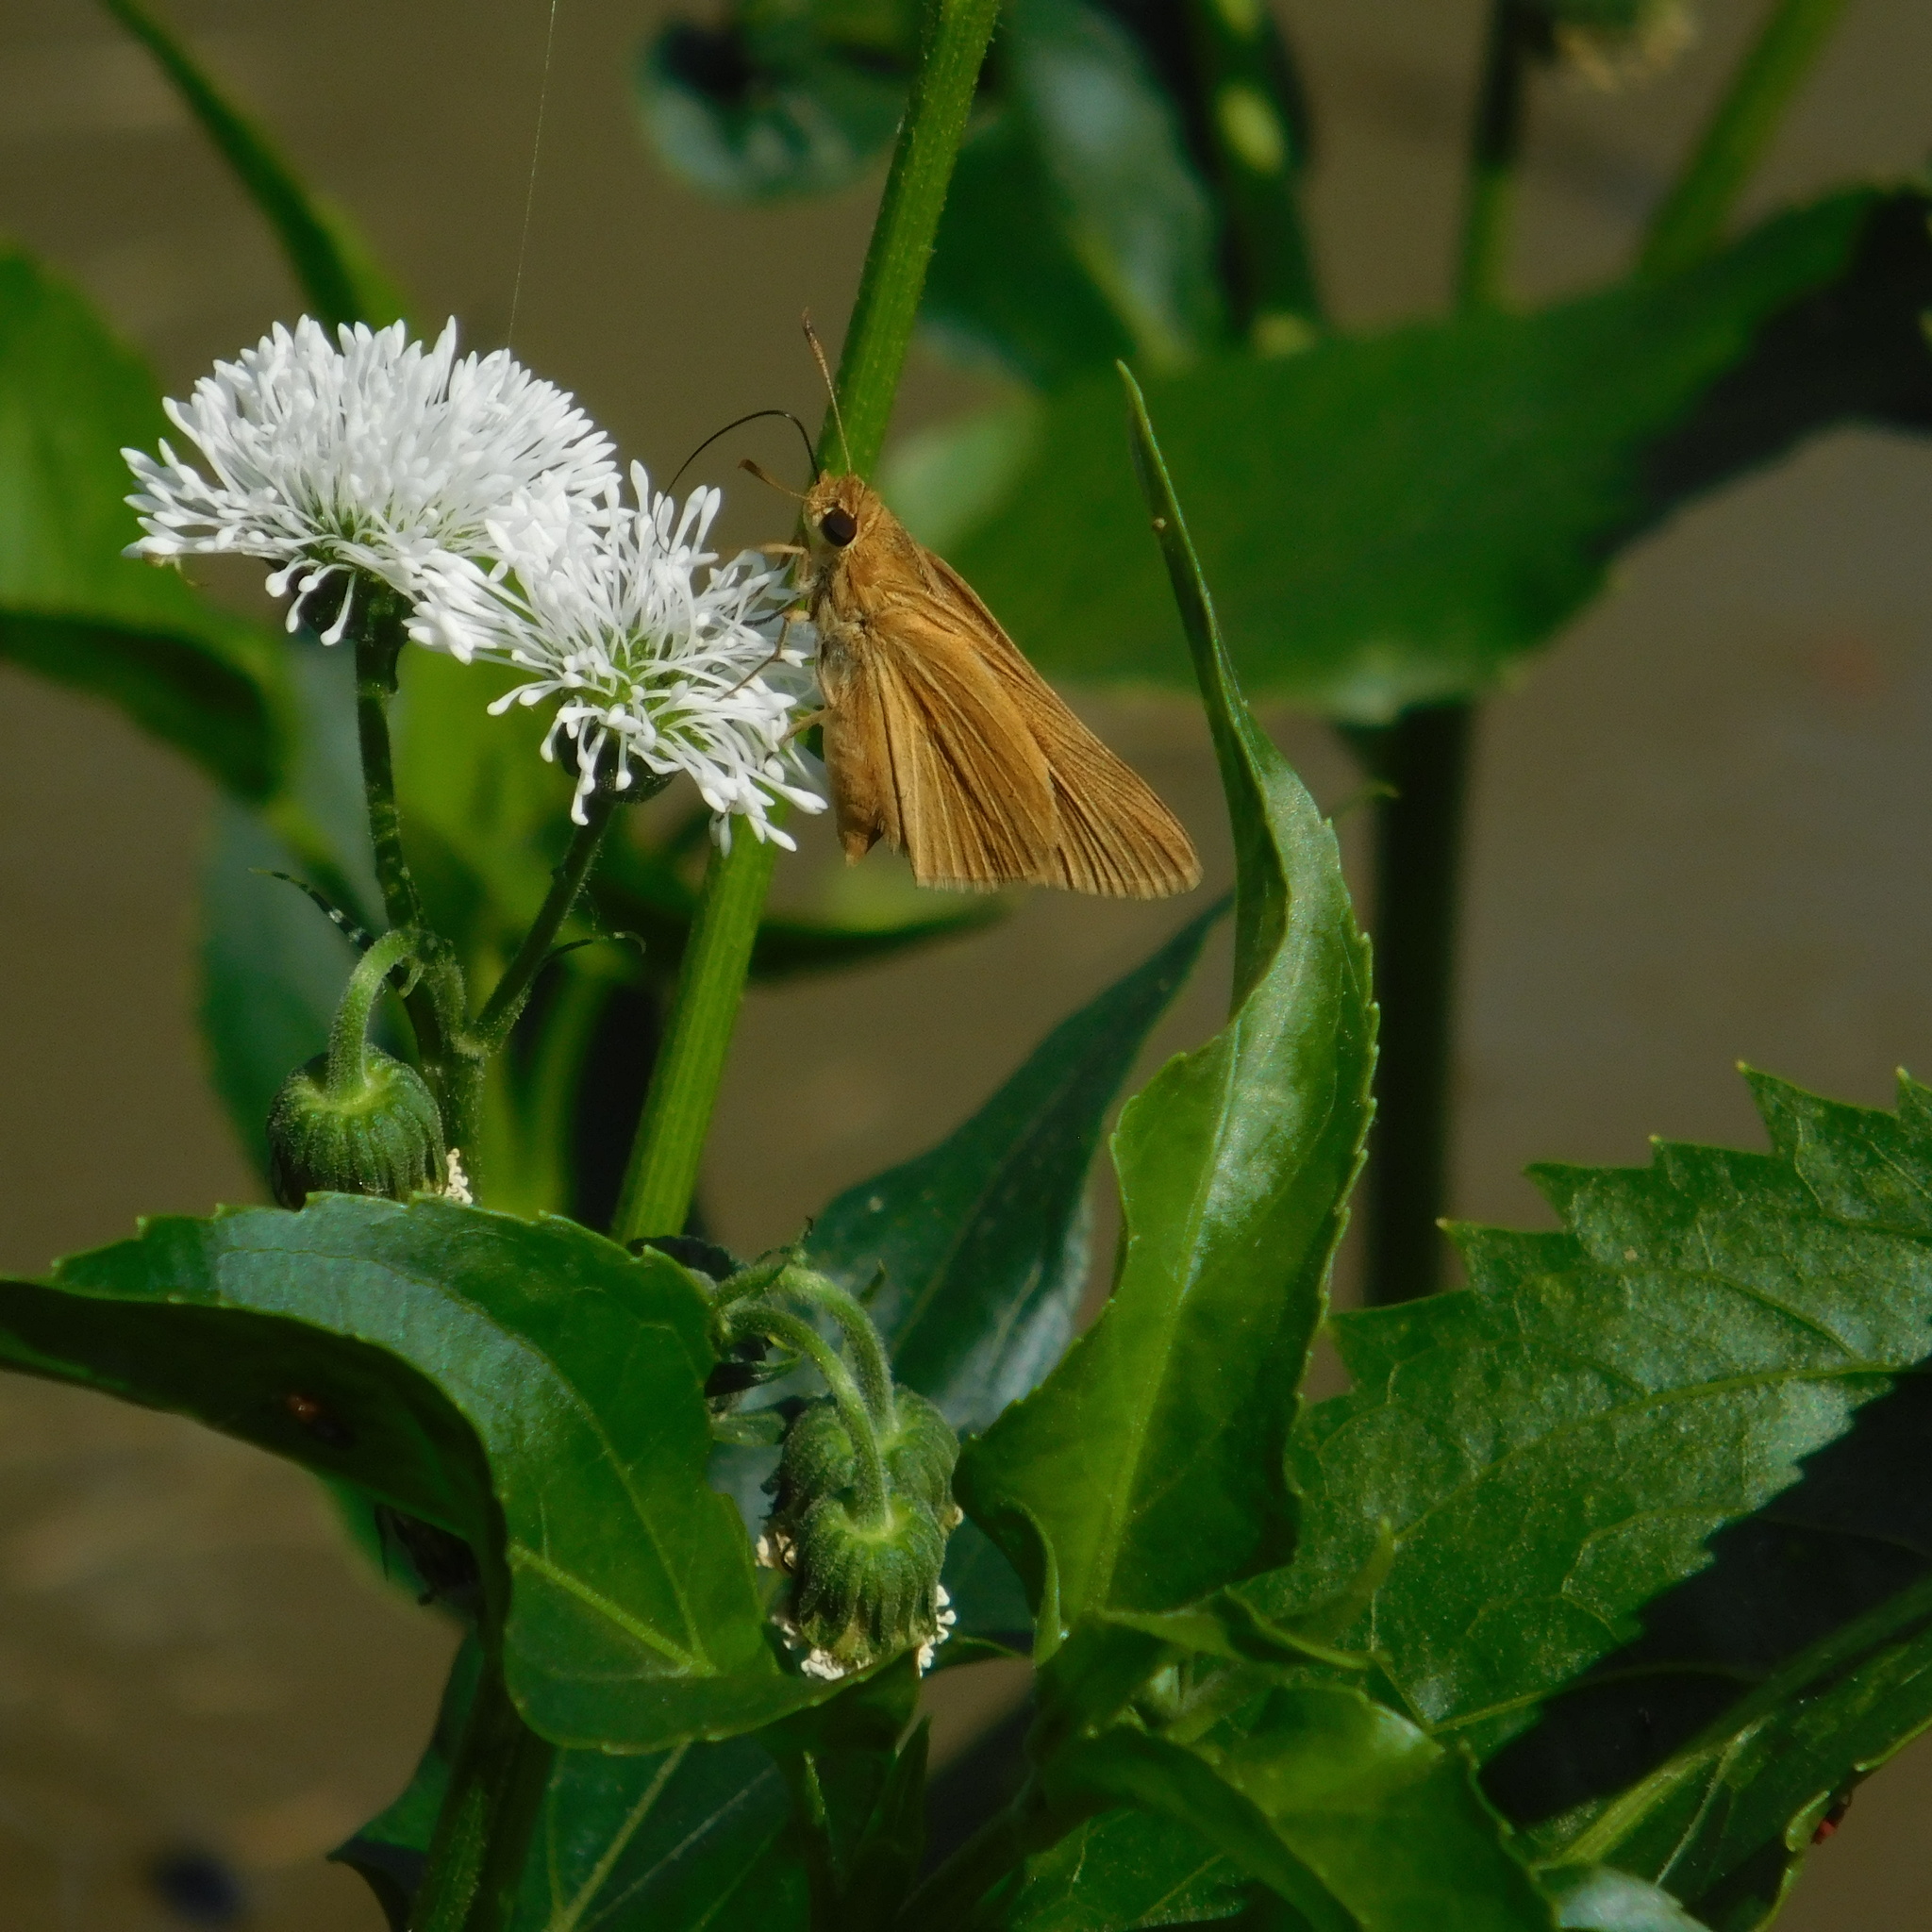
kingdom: Plantae
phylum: Tracheophyta
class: Magnoliopsida
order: Asterales
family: Asteraceae
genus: Gymnocoronis
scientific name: Gymnocoronis spilanthoides
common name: Senegal teaplant
